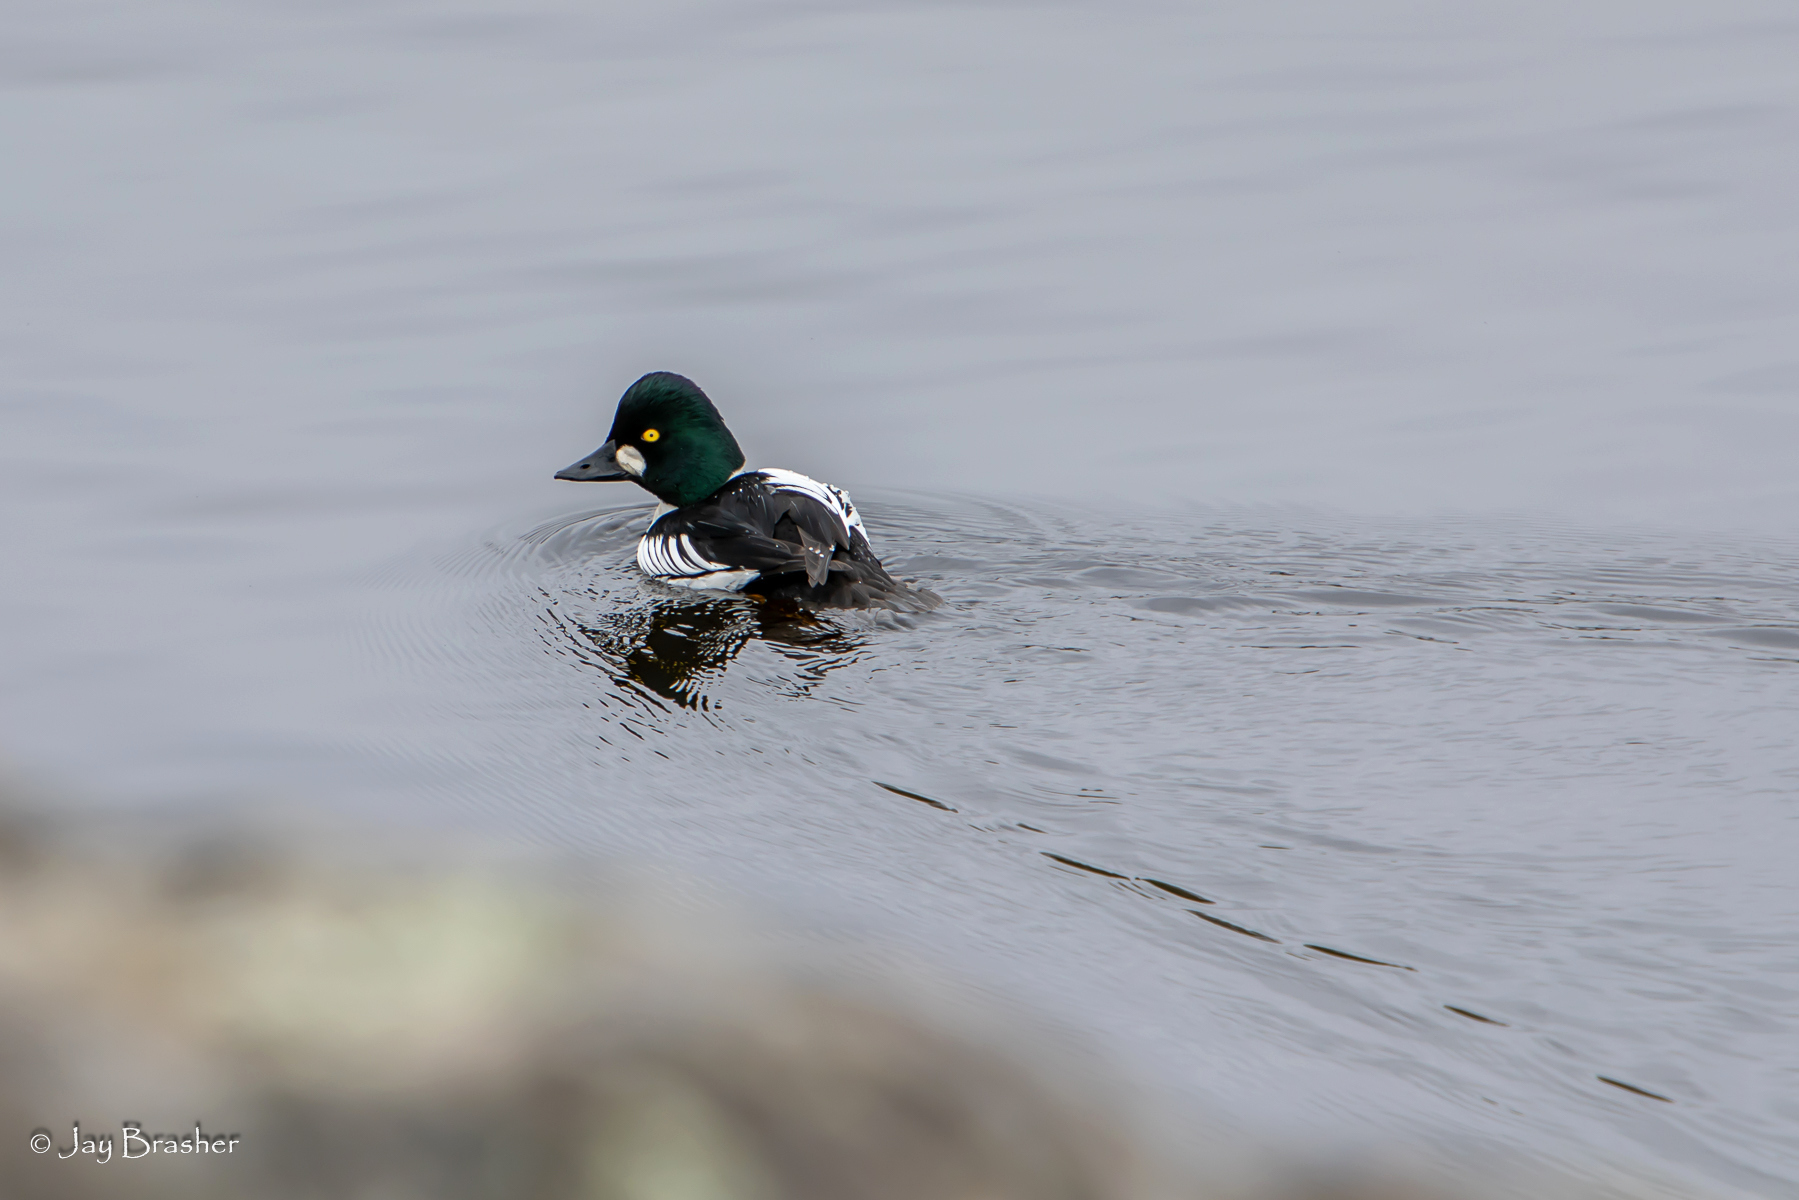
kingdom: Animalia
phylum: Chordata
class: Aves
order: Anseriformes
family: Anatidae
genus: Bucephala
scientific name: Bucephala clangula
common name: Common goldeneye
